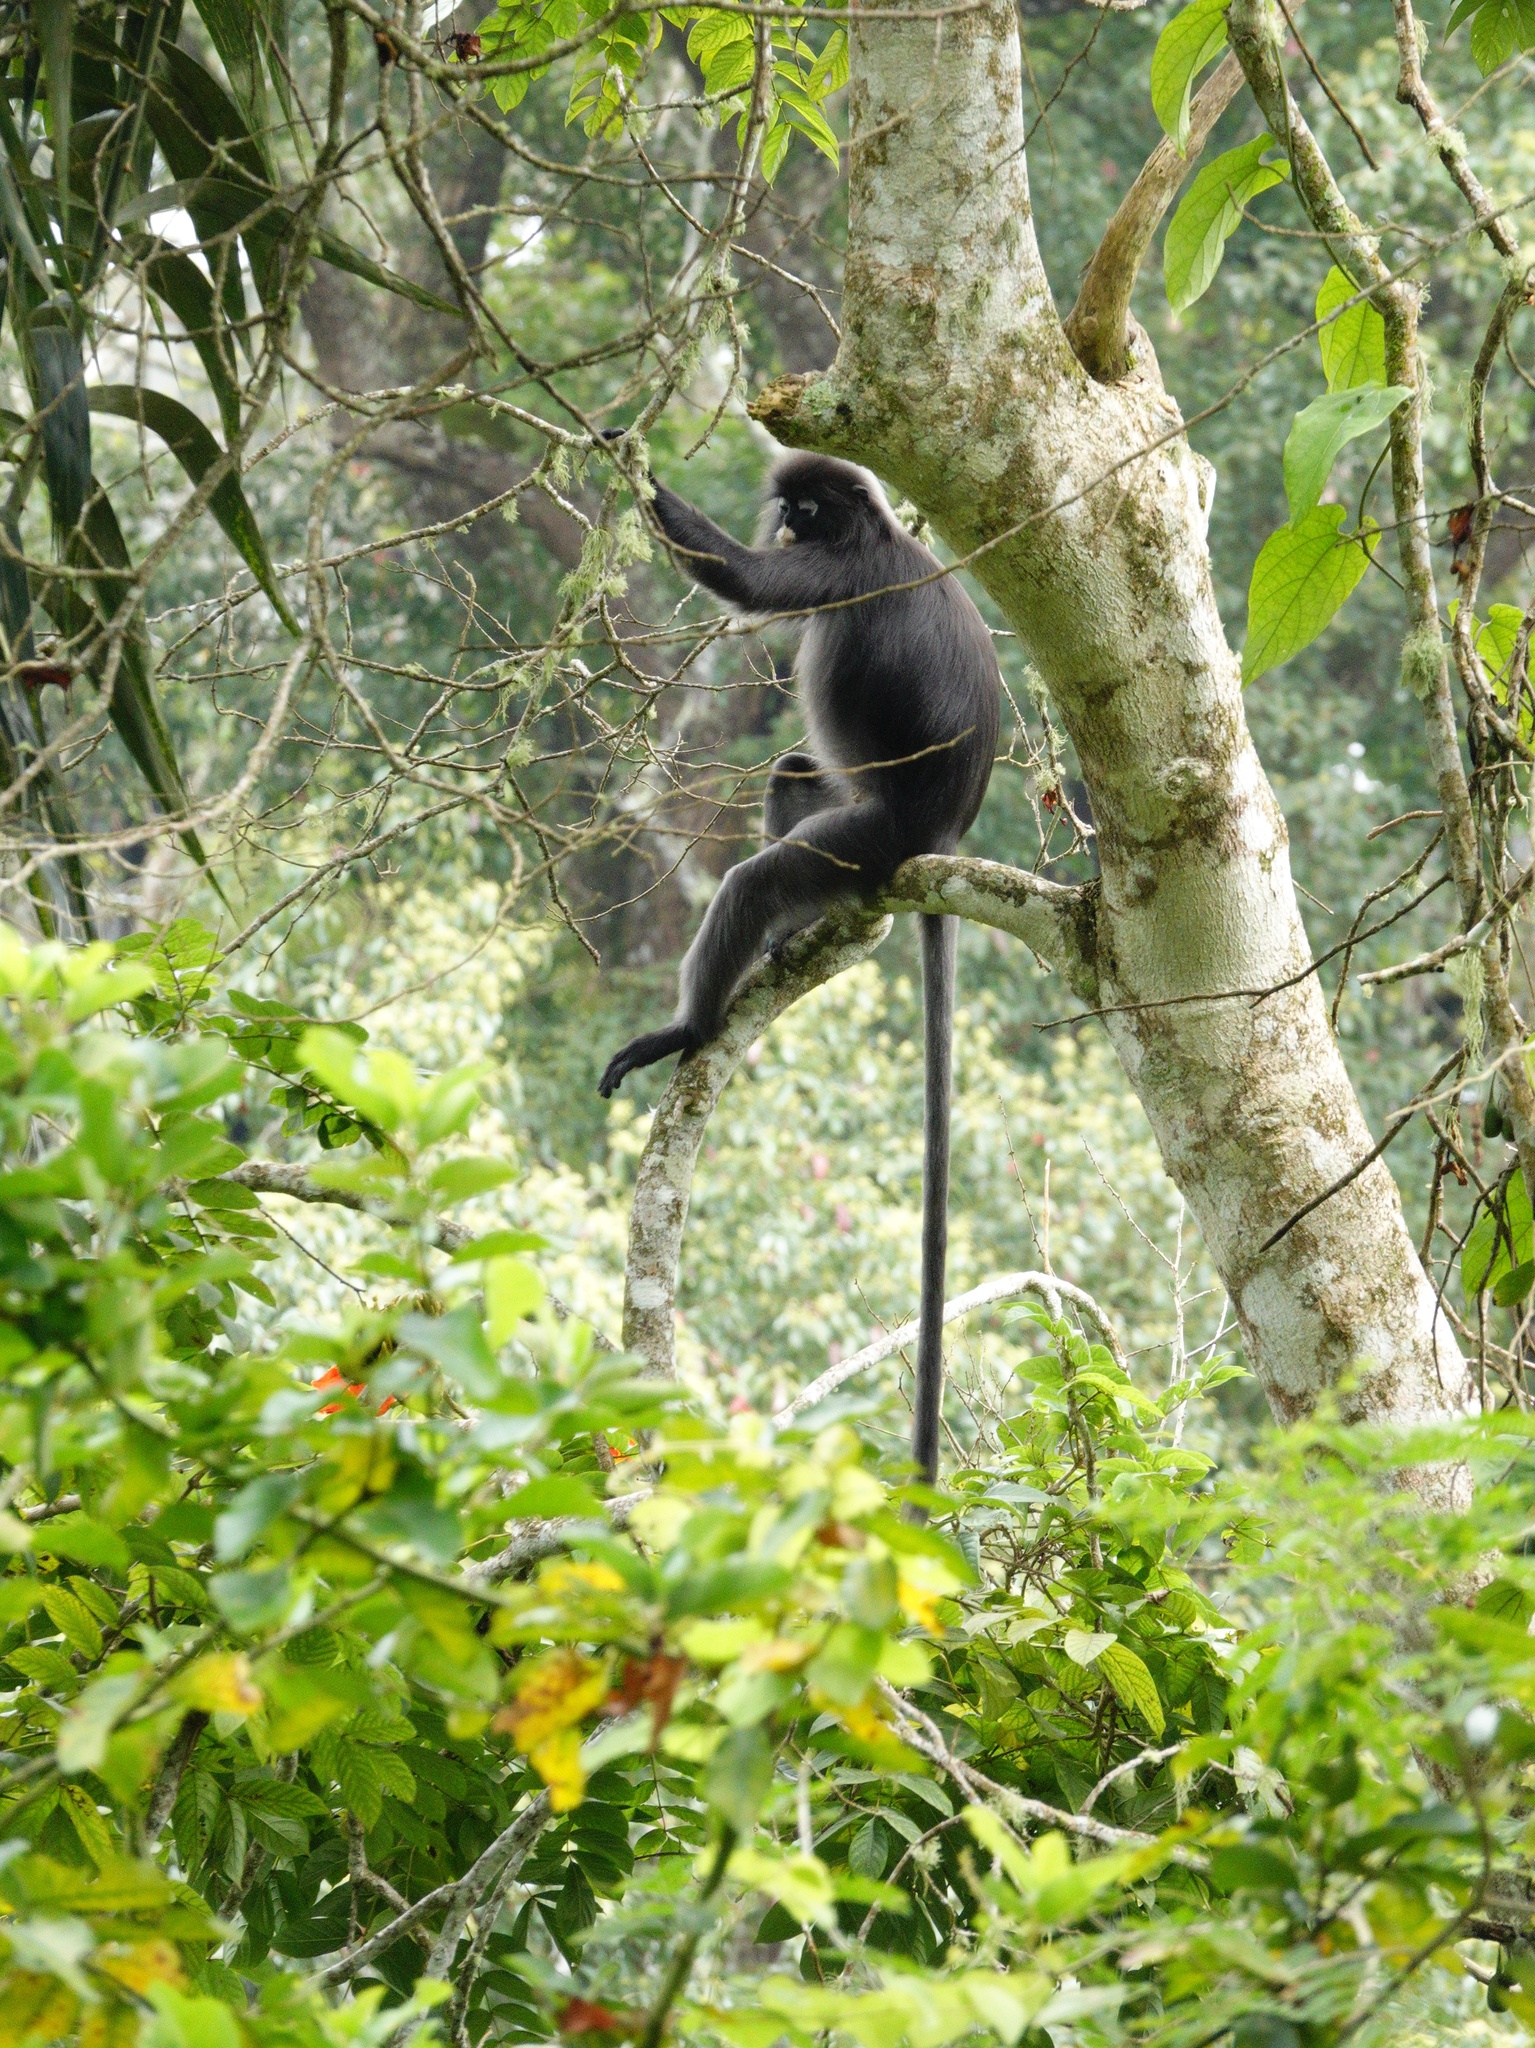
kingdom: Animalia
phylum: Chordata
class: Mammalia
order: Primates
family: Cercopithecidae
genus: Trachypithecus
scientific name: Trachypithecus obscurus
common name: Dusky leaf-monkey
